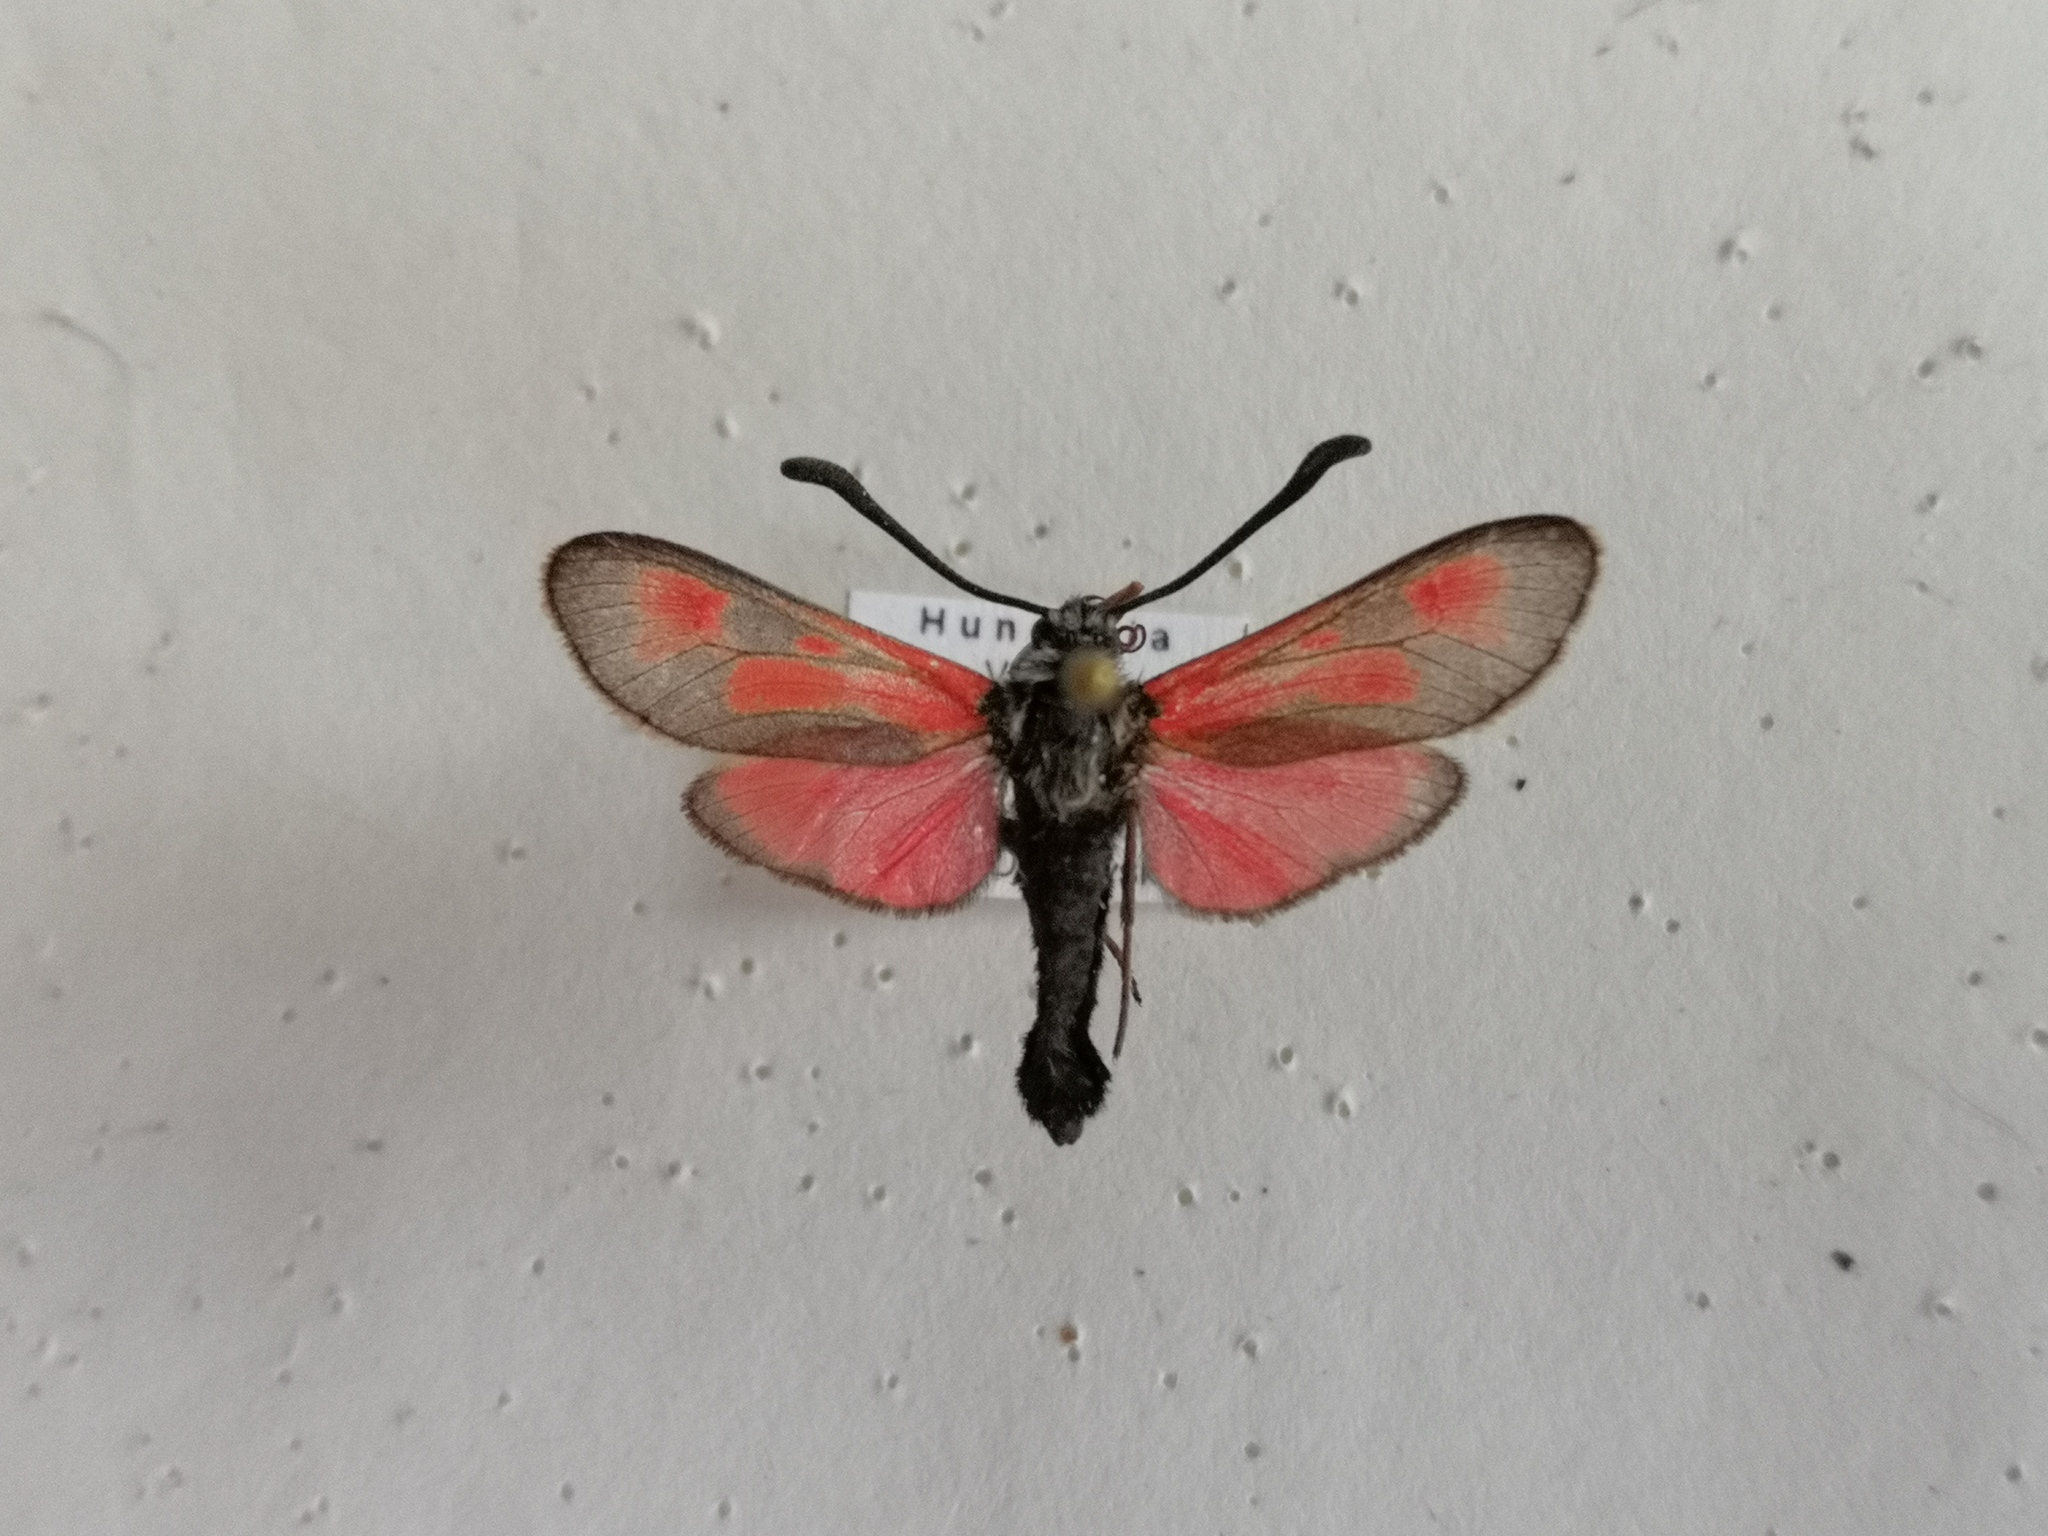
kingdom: Animalia
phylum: Arthropoda
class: Insecta
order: Lepidoptera
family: Zygaenidae
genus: Zygaena
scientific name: Zygaena punctum
